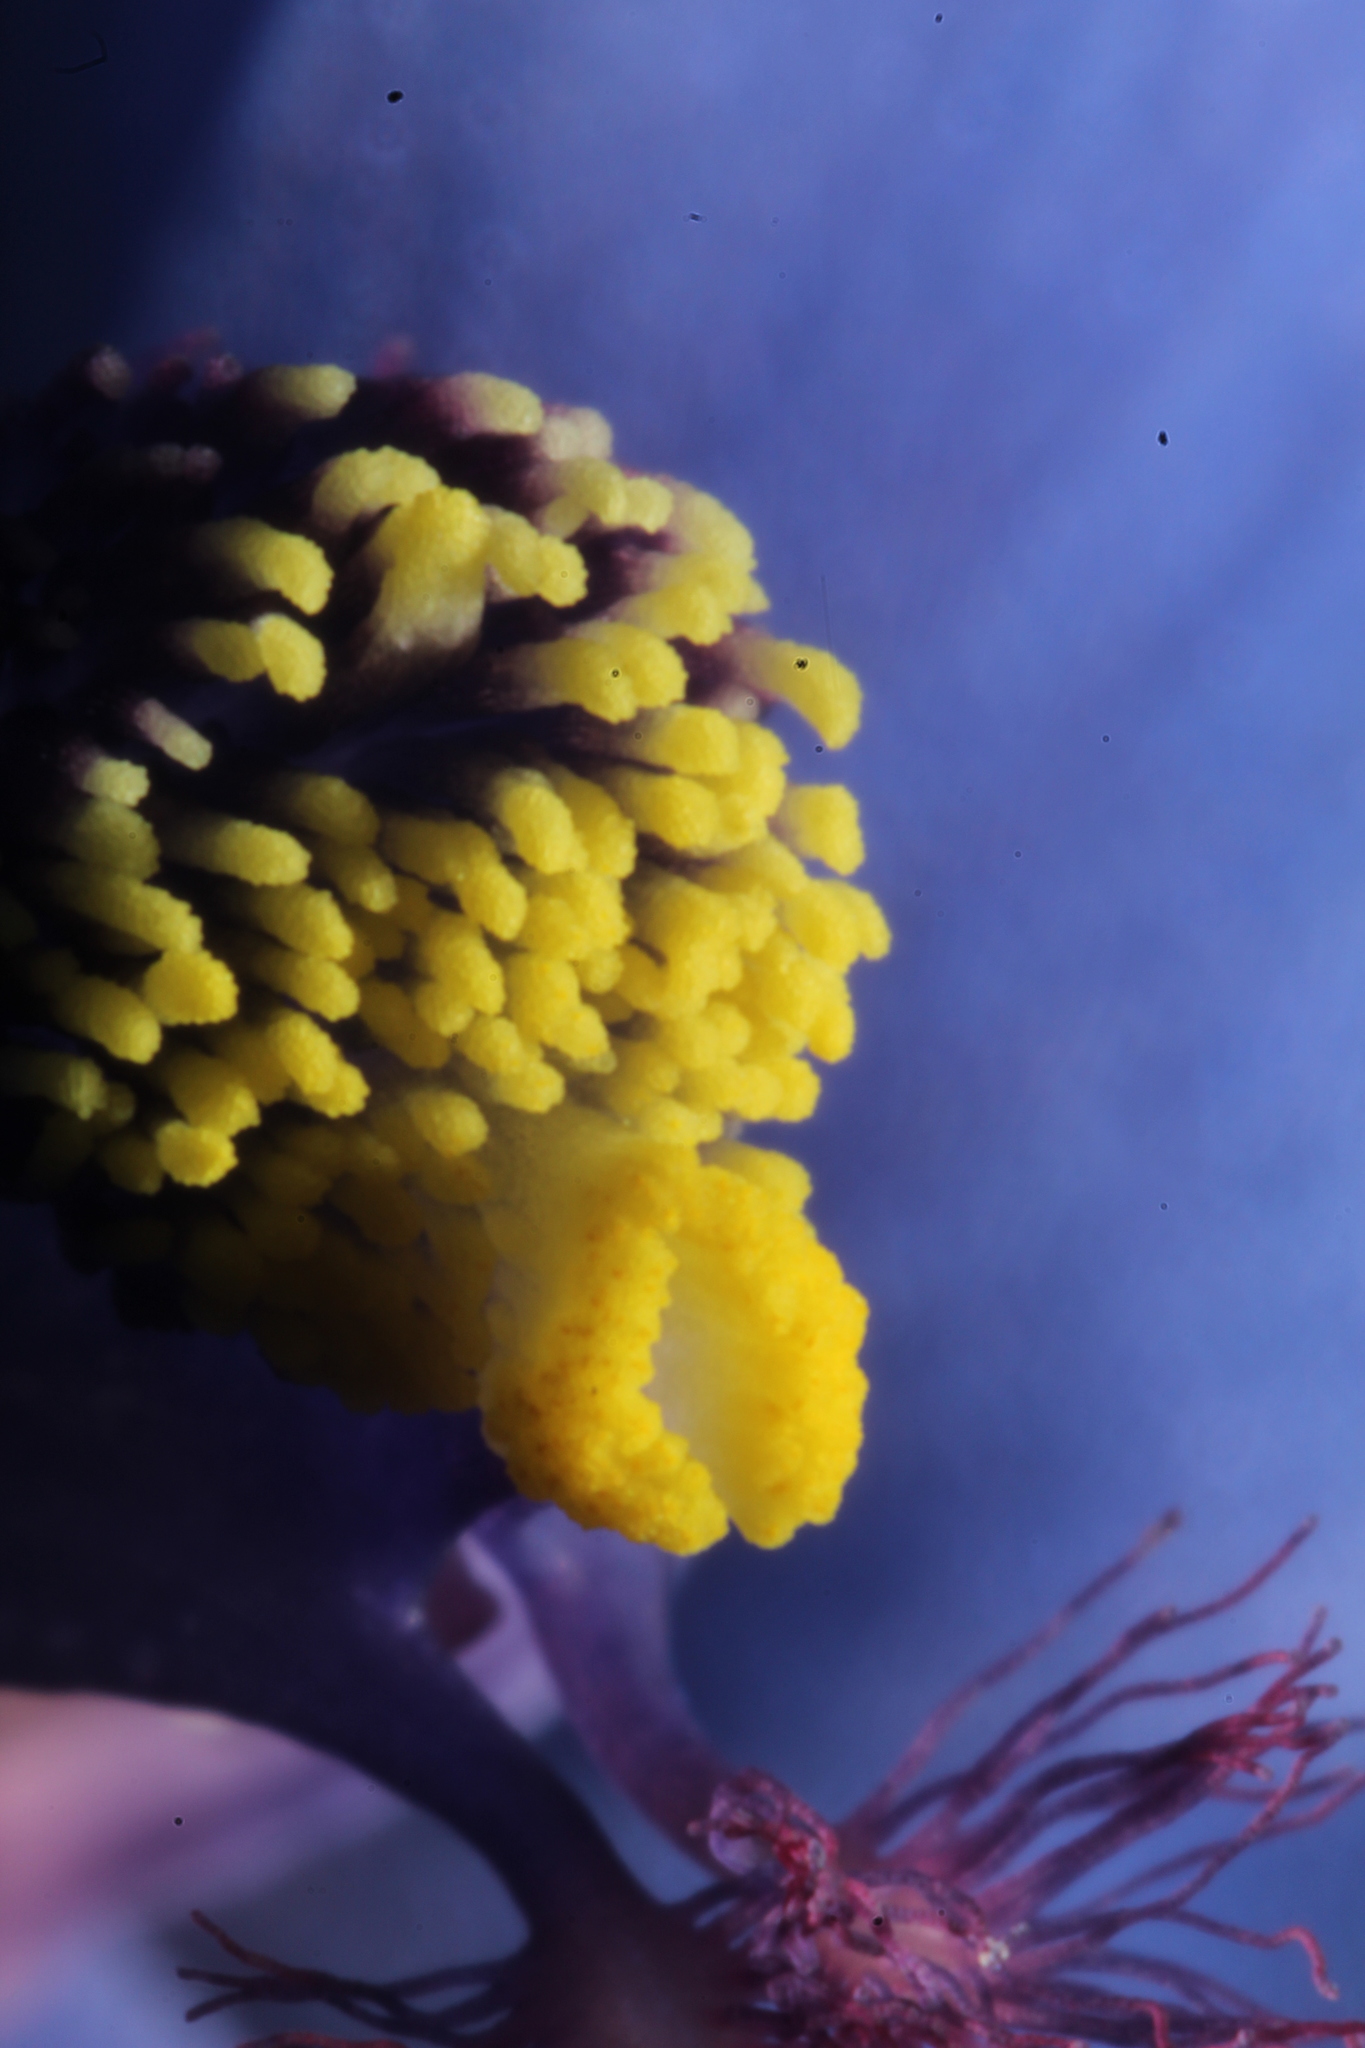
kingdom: Plantae
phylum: Tracheophyta
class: Liliopsida
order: Asparagales
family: Orchidaceae
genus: Thelymitra
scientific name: Thelymitra crinita
